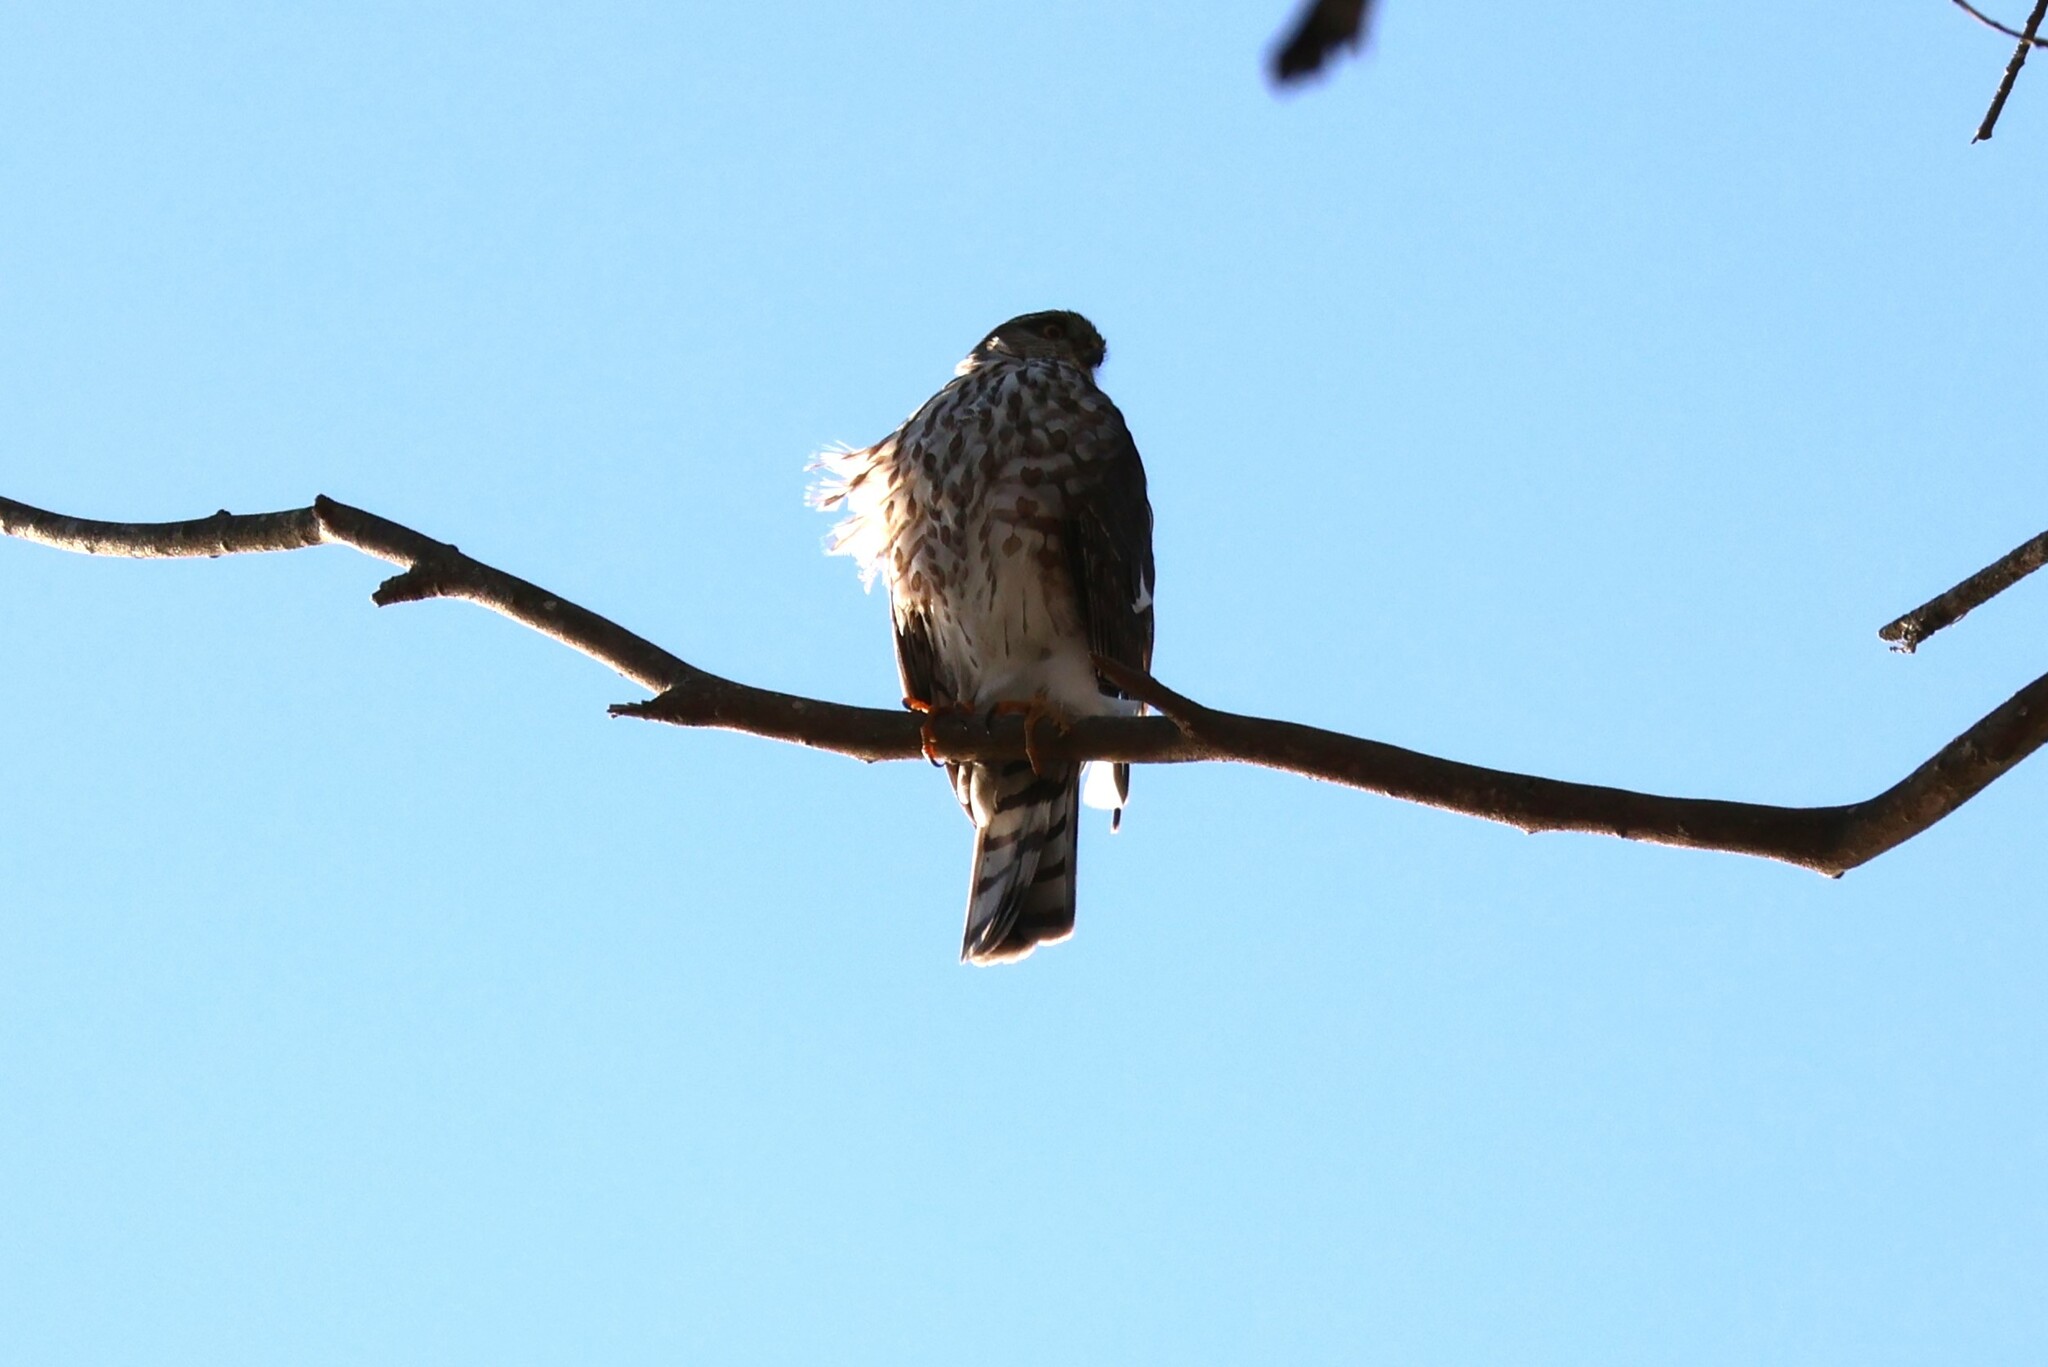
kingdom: Animalia
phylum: Chordata
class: Aves
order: Accipitriformes
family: Accipitridae
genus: Accipiter
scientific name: Accipiter striatus
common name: Sharp-shinned hawk
